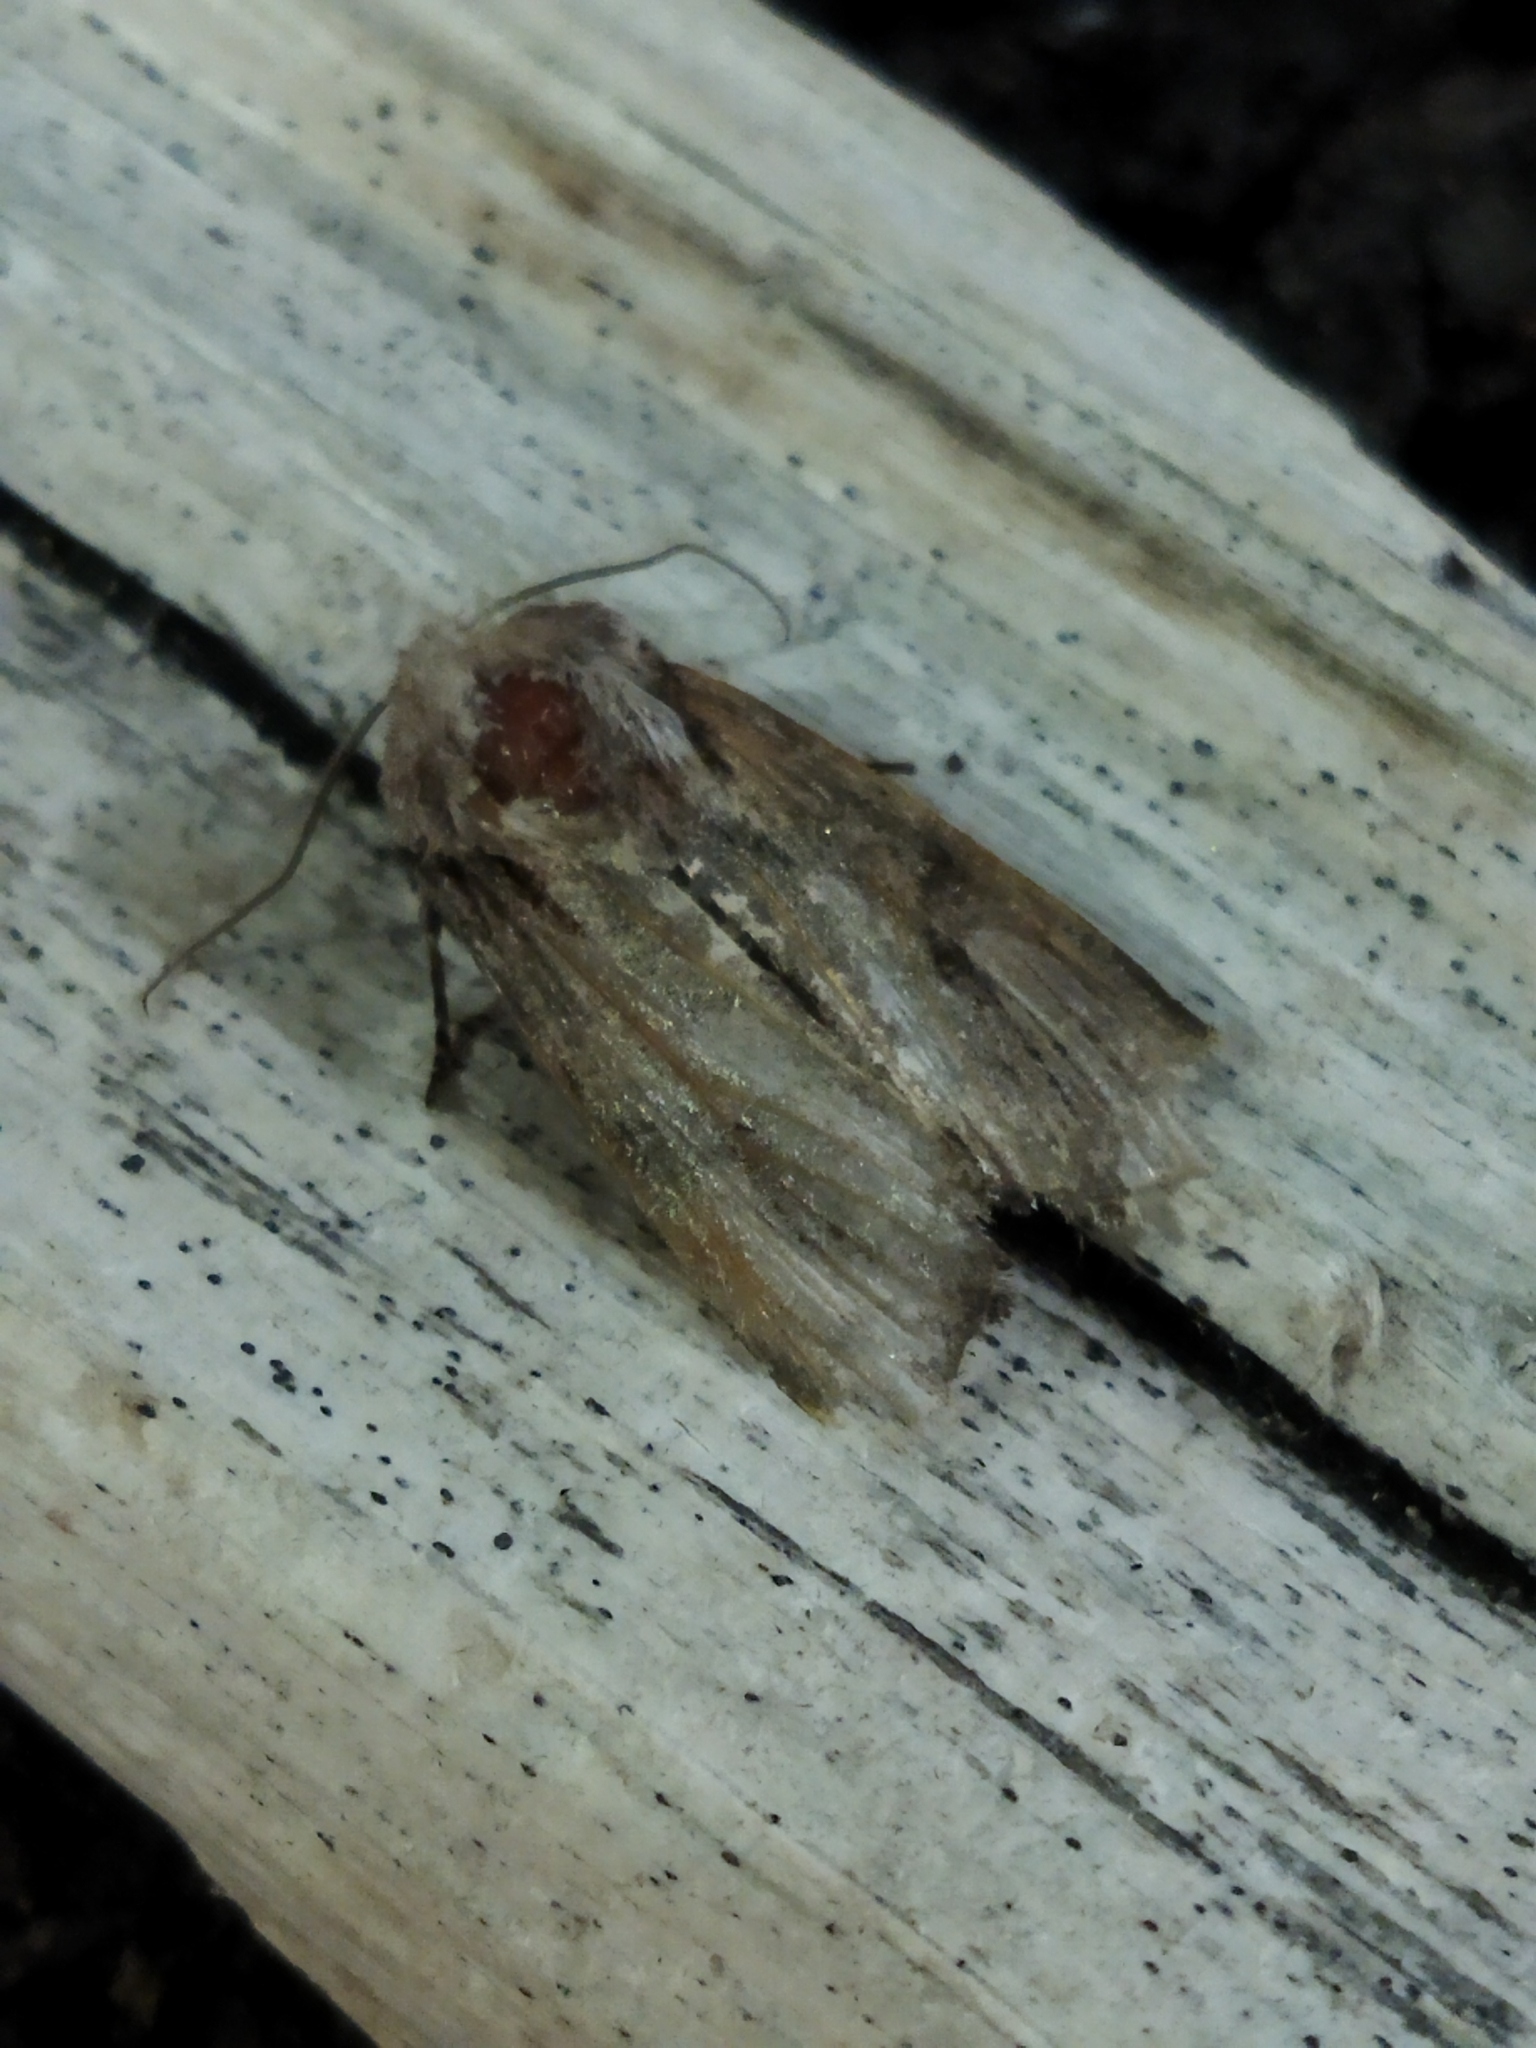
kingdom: Animalia
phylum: Arthropoda
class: Insecta
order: Lepidoptera
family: Noctuidae
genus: Egira
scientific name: Egira
